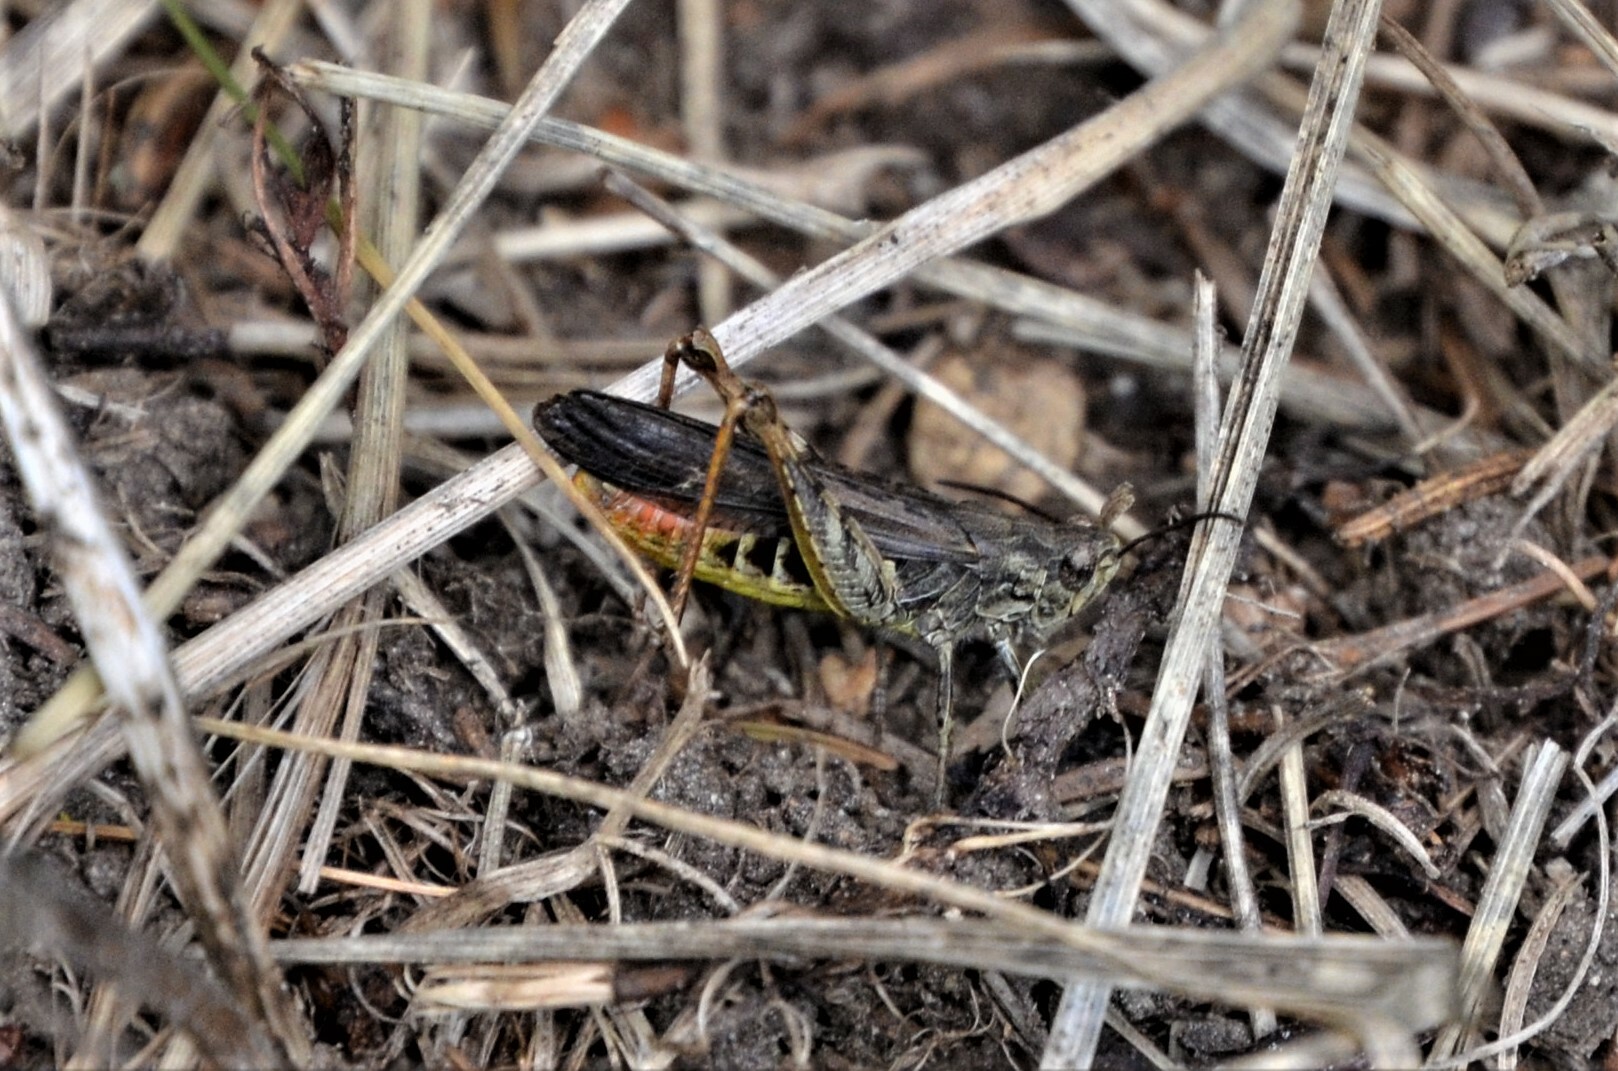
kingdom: Animalia
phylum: Arthropoda
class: Insecta
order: Orthoptera
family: Acrididae
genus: Chorthippus
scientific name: Chorthippus brunneus
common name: Field grasshopper
